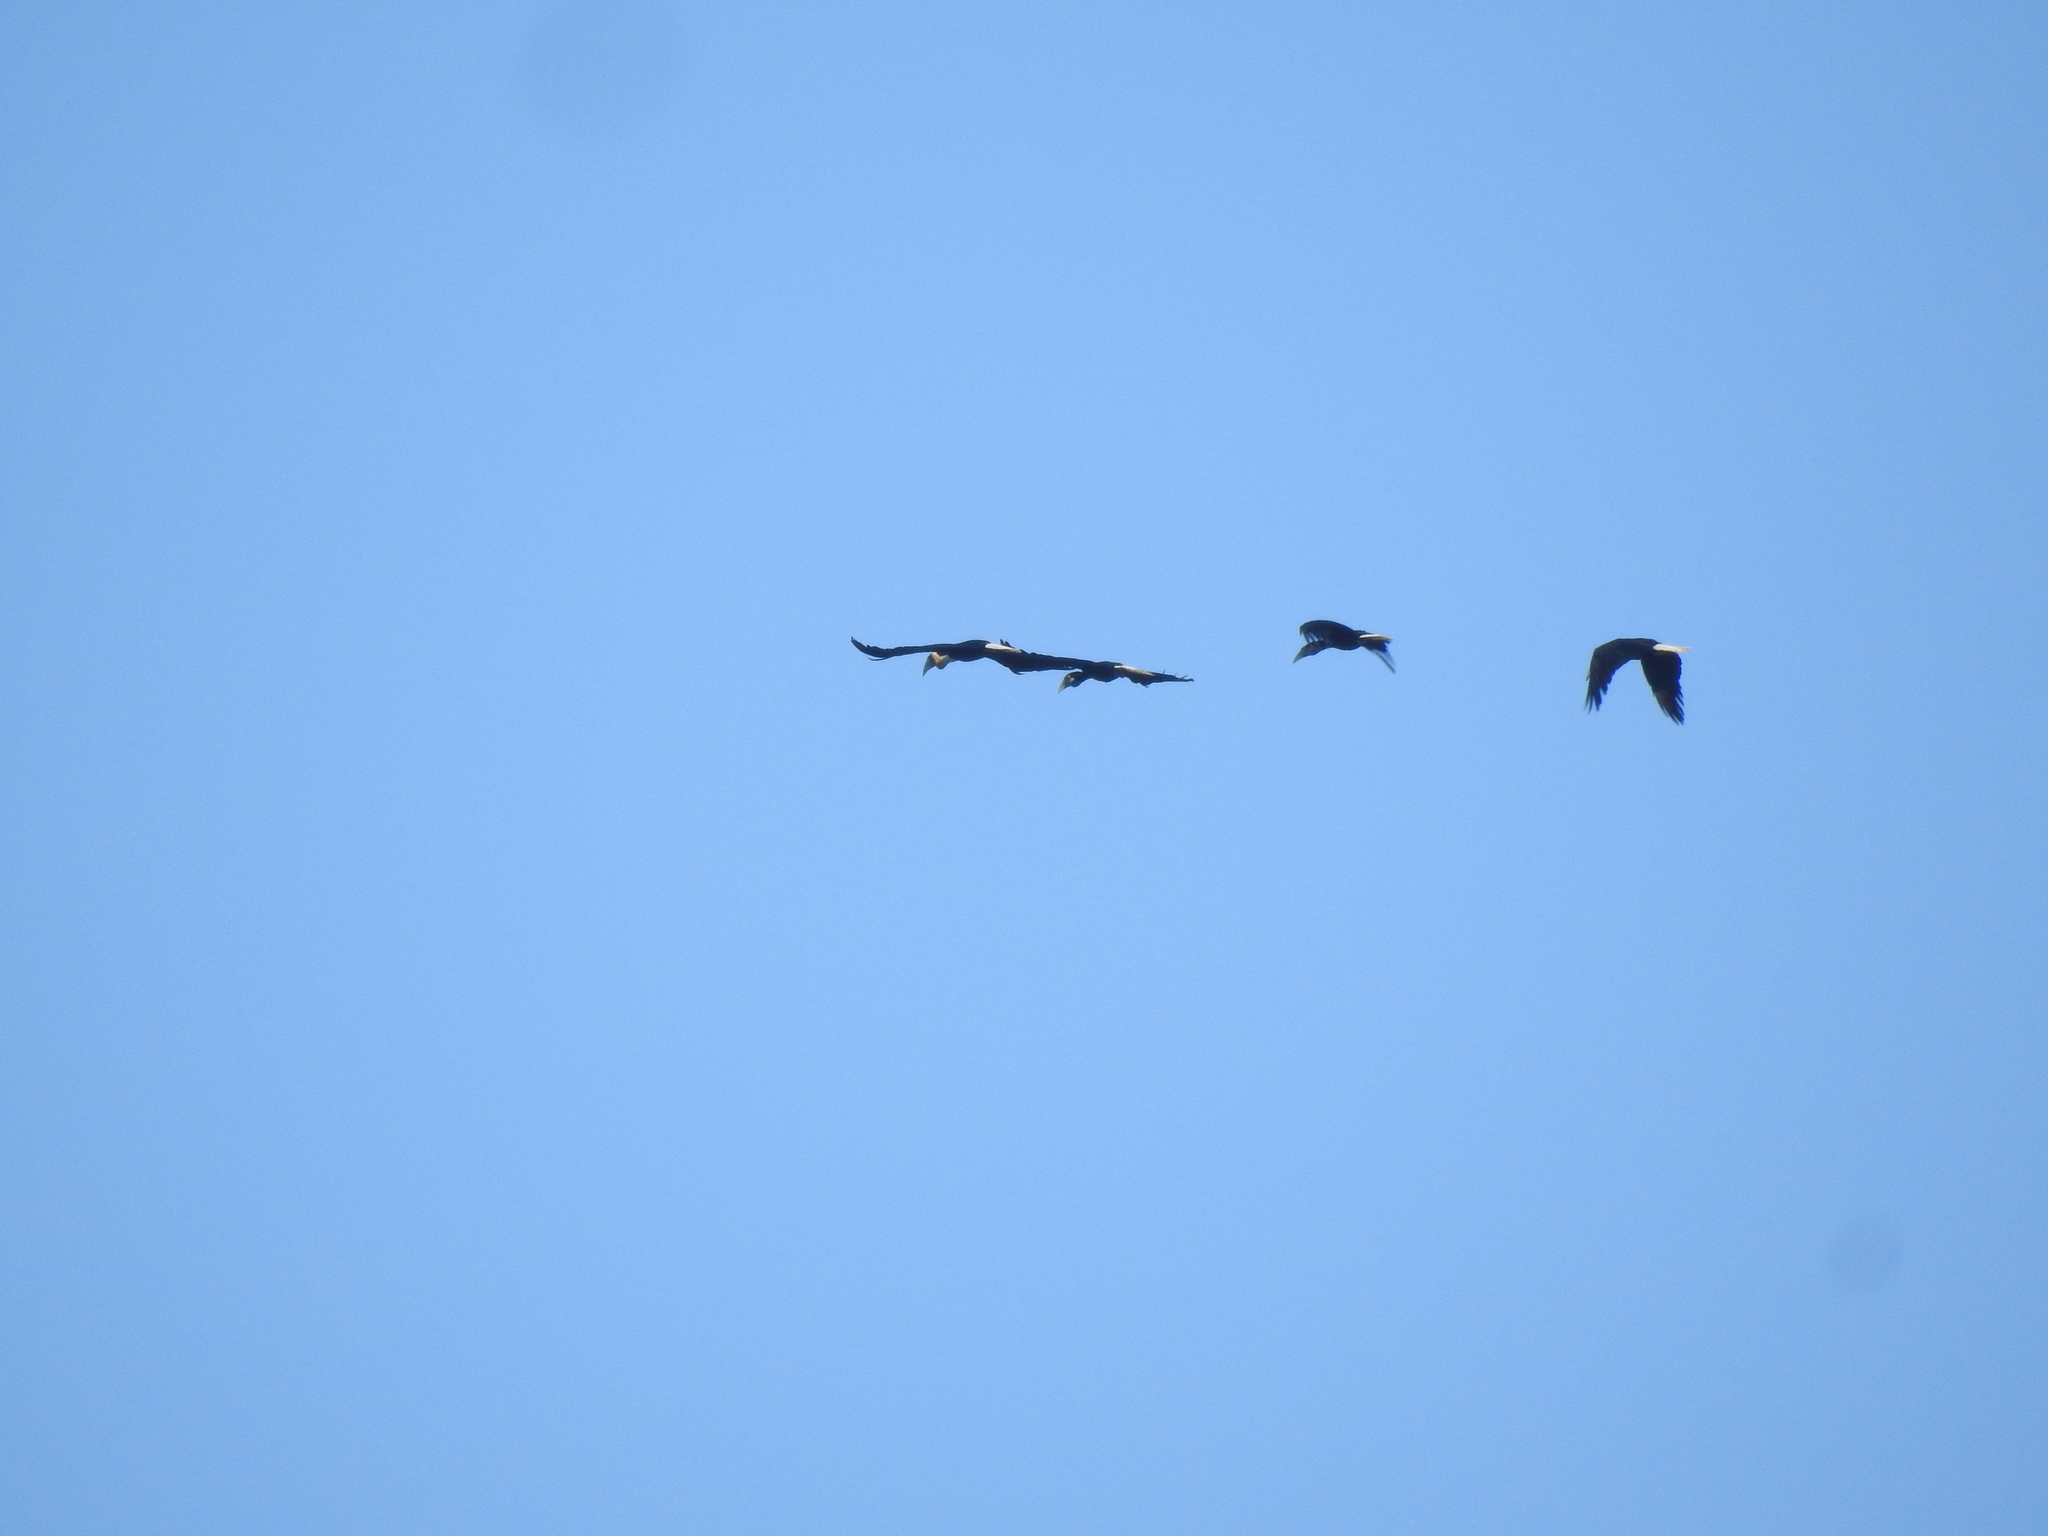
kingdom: Animalia
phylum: Chordata
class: Aves
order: Bucerotiformes
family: Bucerotidae
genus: Rhyticeros
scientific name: Rhyticeros undulatus
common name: Wreathed hornbill
